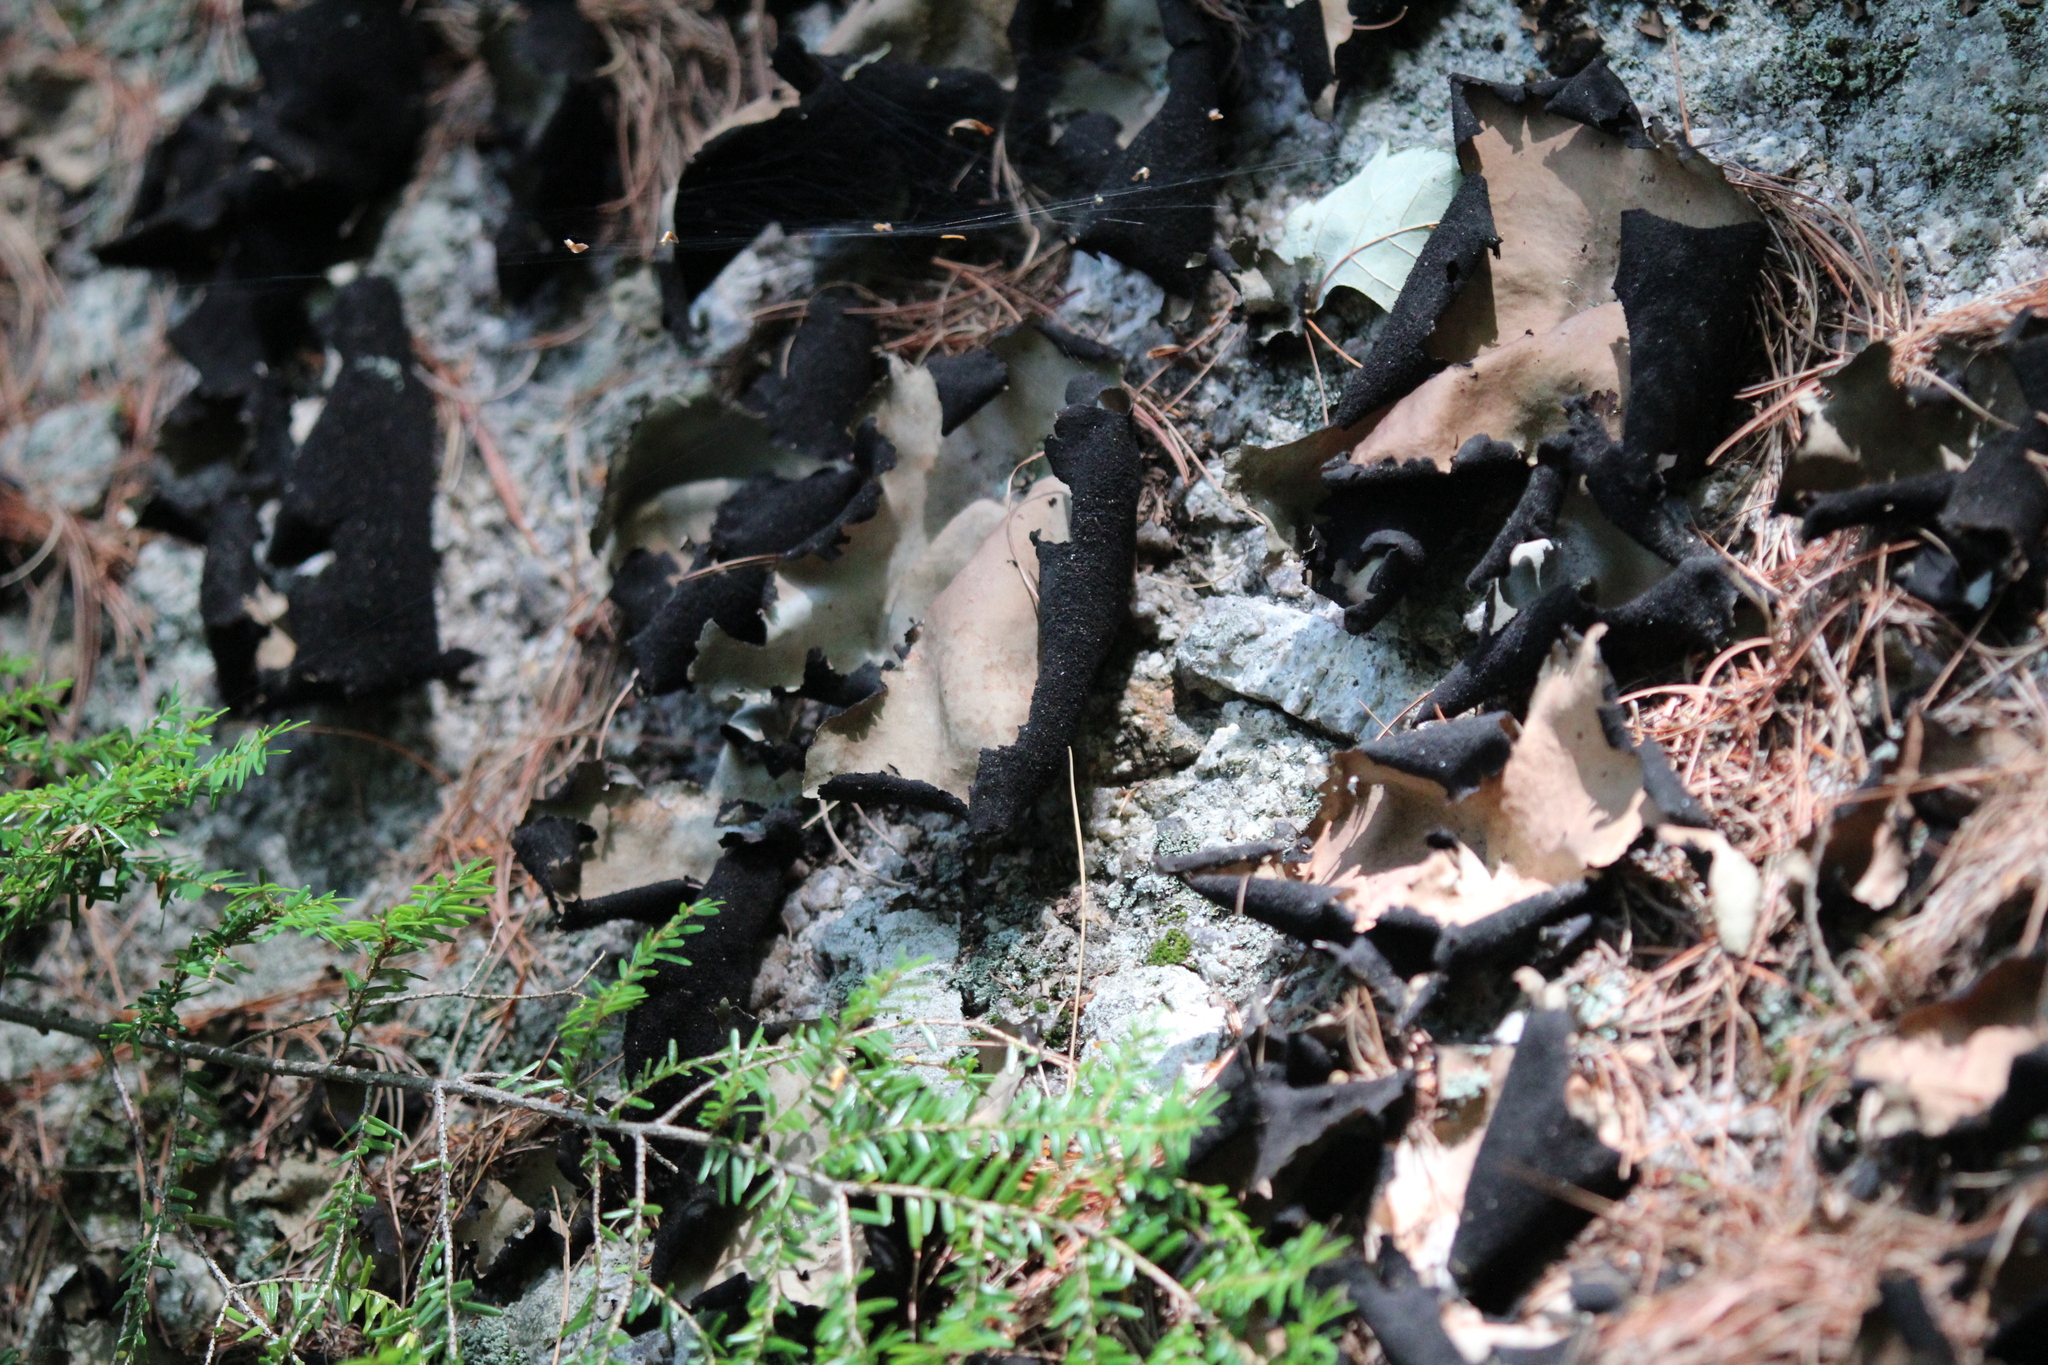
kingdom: Fungi
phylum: Ascomycota
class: Lecanoromycetes
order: Umbilicariales
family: Umbilicariaceae
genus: Umbilicaria
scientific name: Umbilicaria mammulata
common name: Smooth rock tripe
